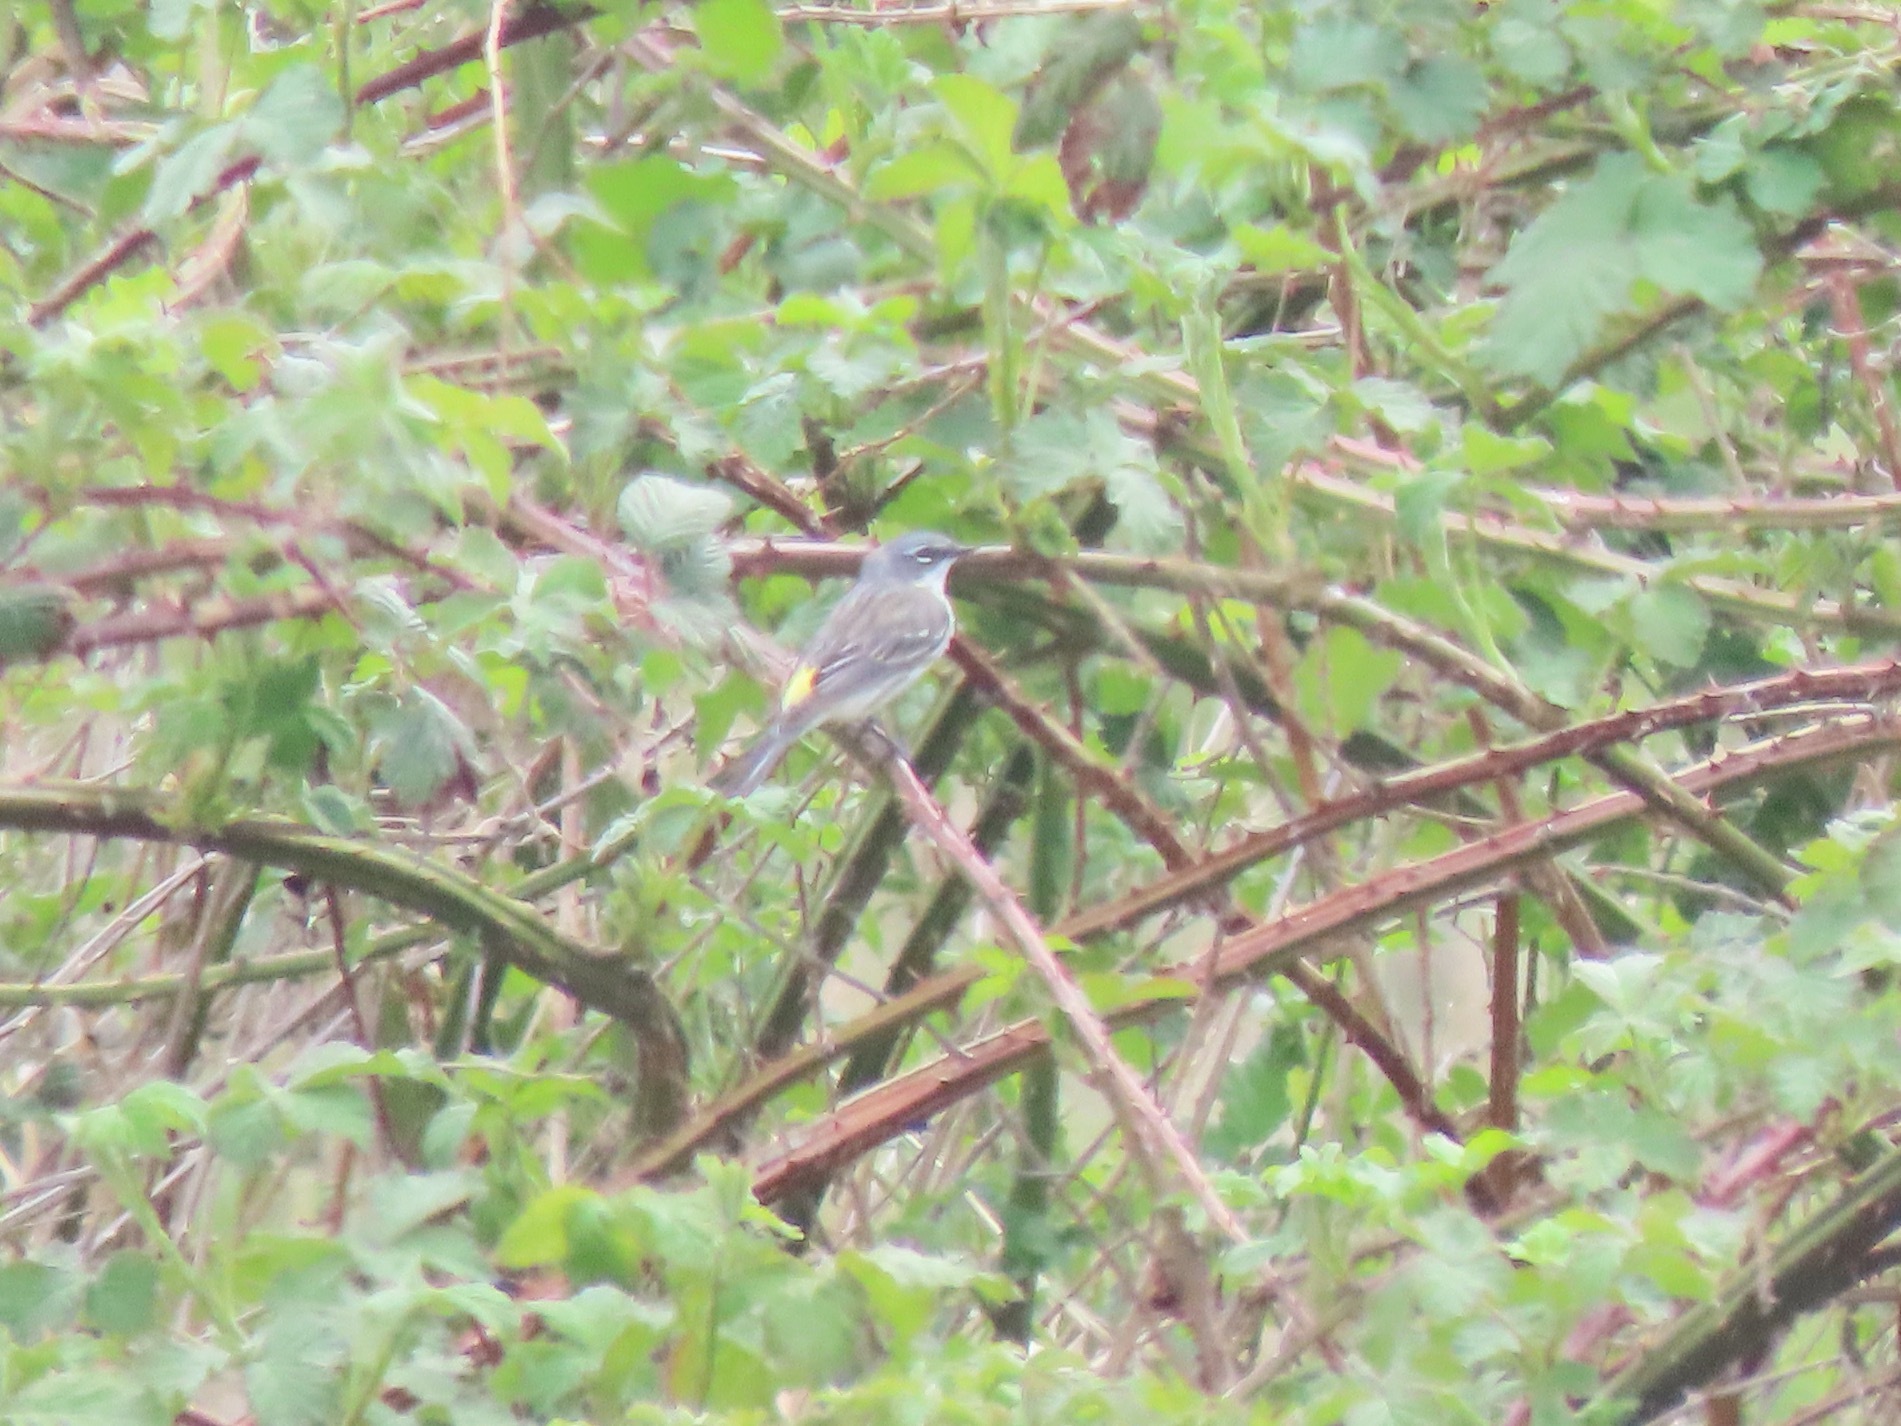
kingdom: Animalia
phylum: Chordata
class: Aves
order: Passeriformes
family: Parulidae
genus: Setophaga
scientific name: Setophaga coronata
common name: Myrtle warbler
